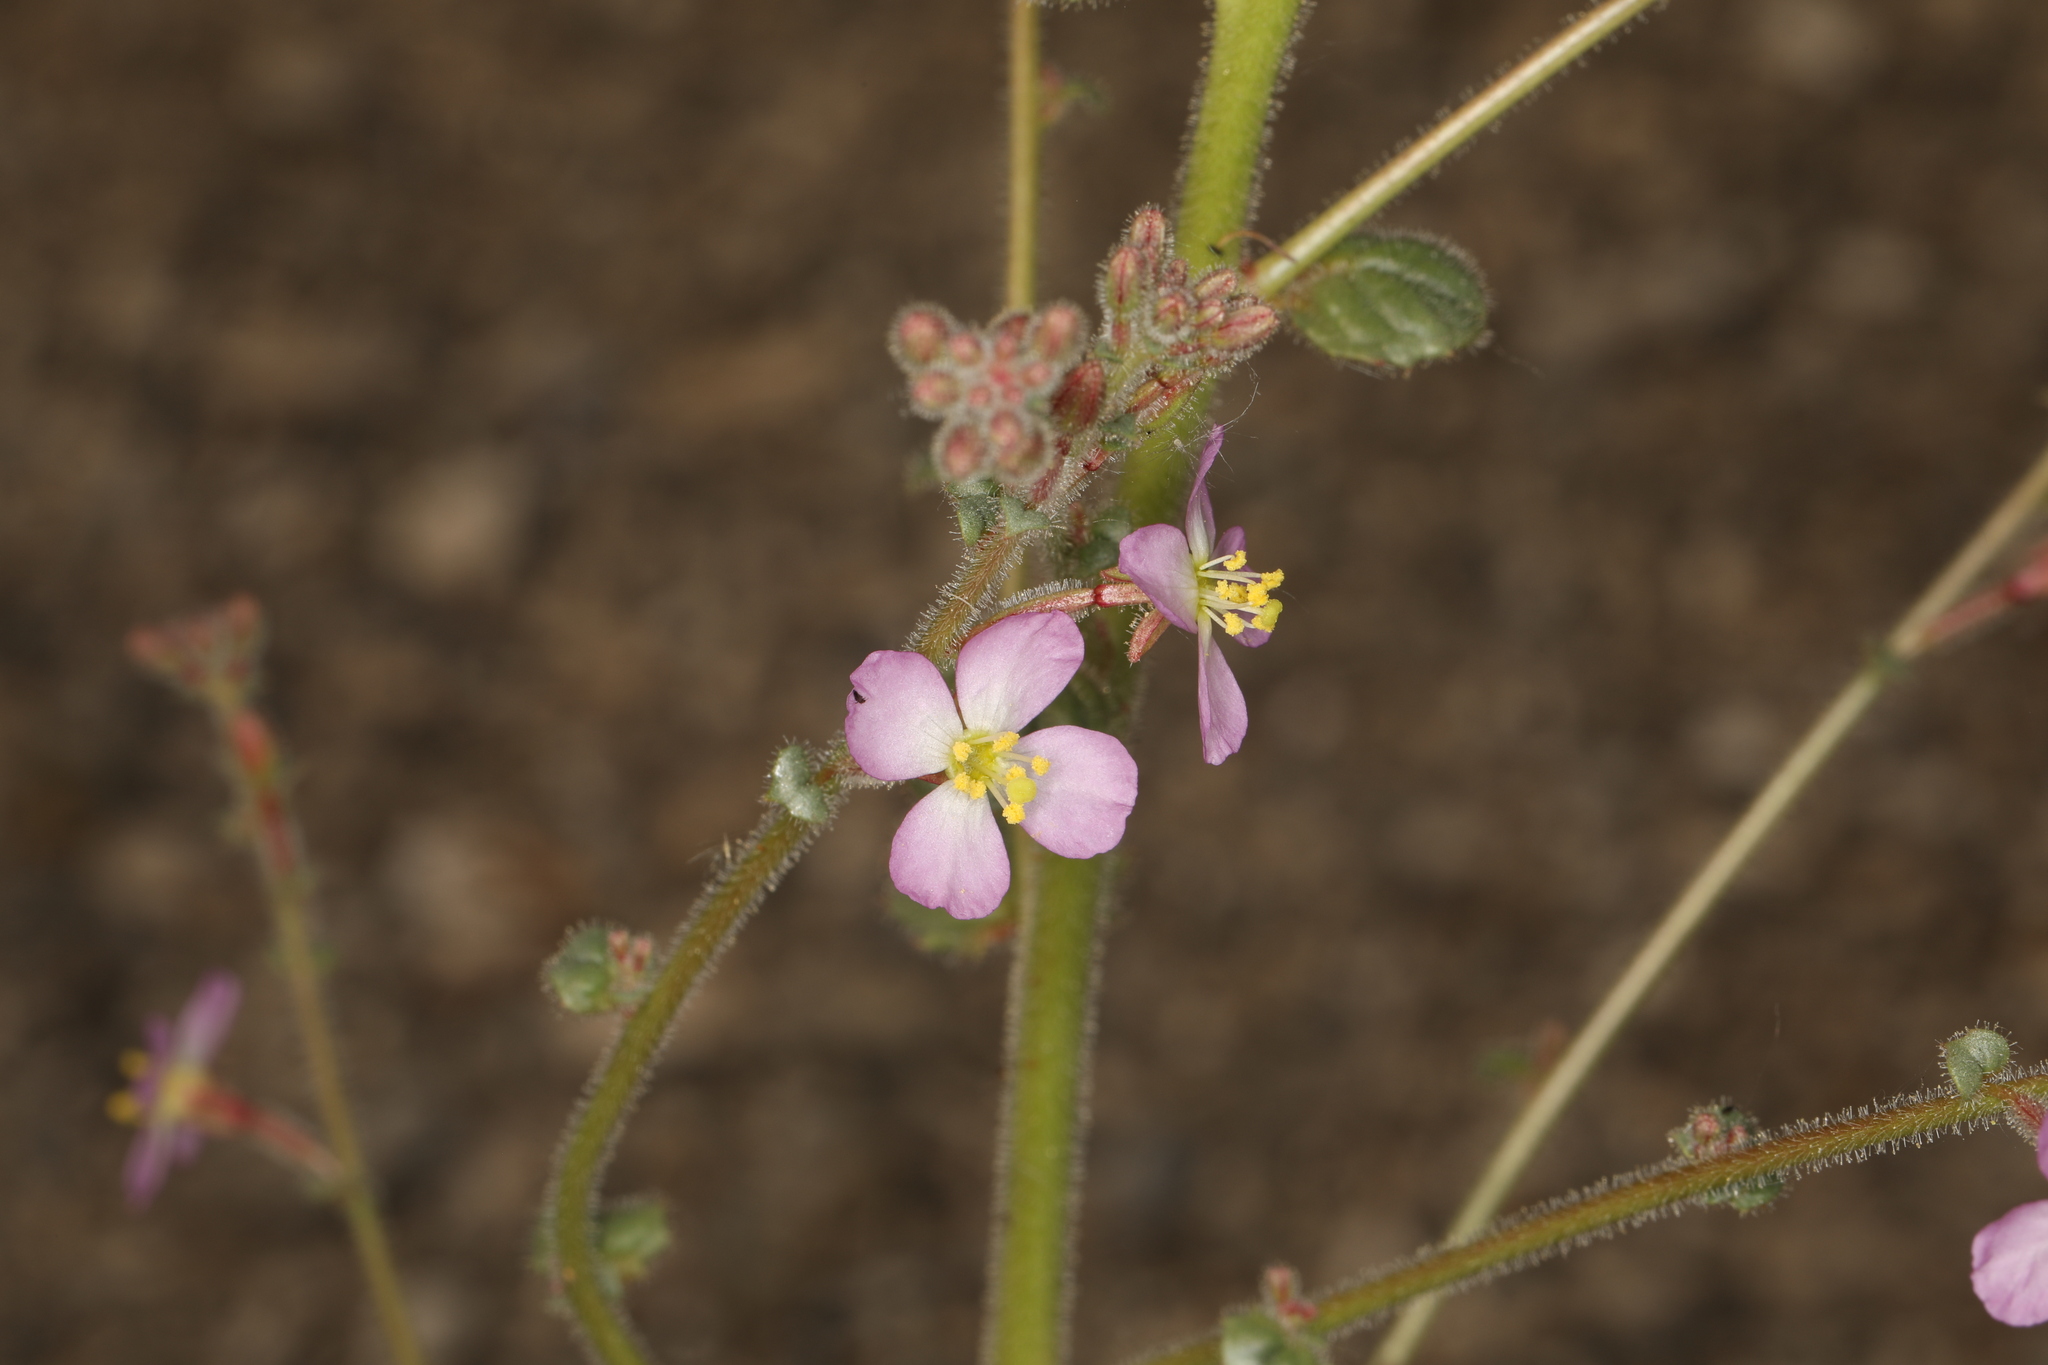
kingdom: Plantae
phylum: Tracheophyta
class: Magnoliopsida
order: Myrtales
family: Onagraceae
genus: Chylismia
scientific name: Chylismia heterochroma
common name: Shockley's evening primrose
